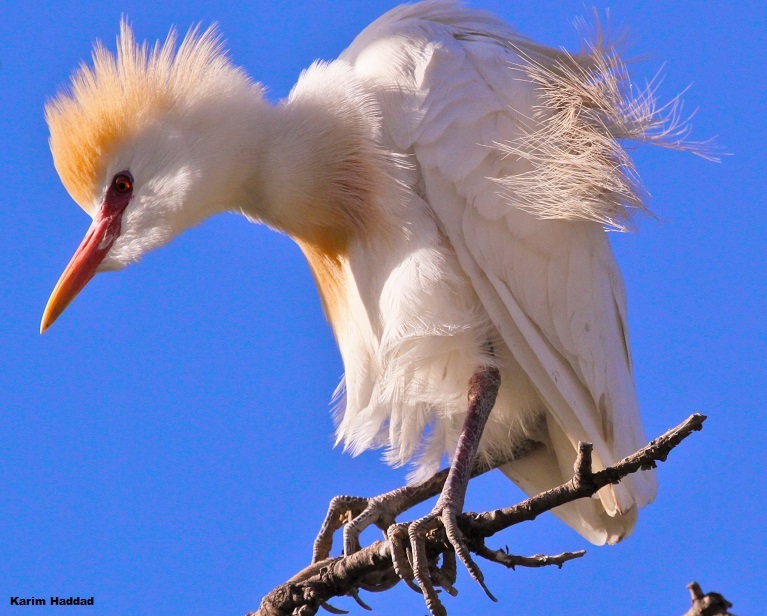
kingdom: Animalia
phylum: Chordata
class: Aves
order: Pelecaniformes
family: Ardeidae
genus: Bubulcus
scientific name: Bubulcus ibis
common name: Cattle egret
